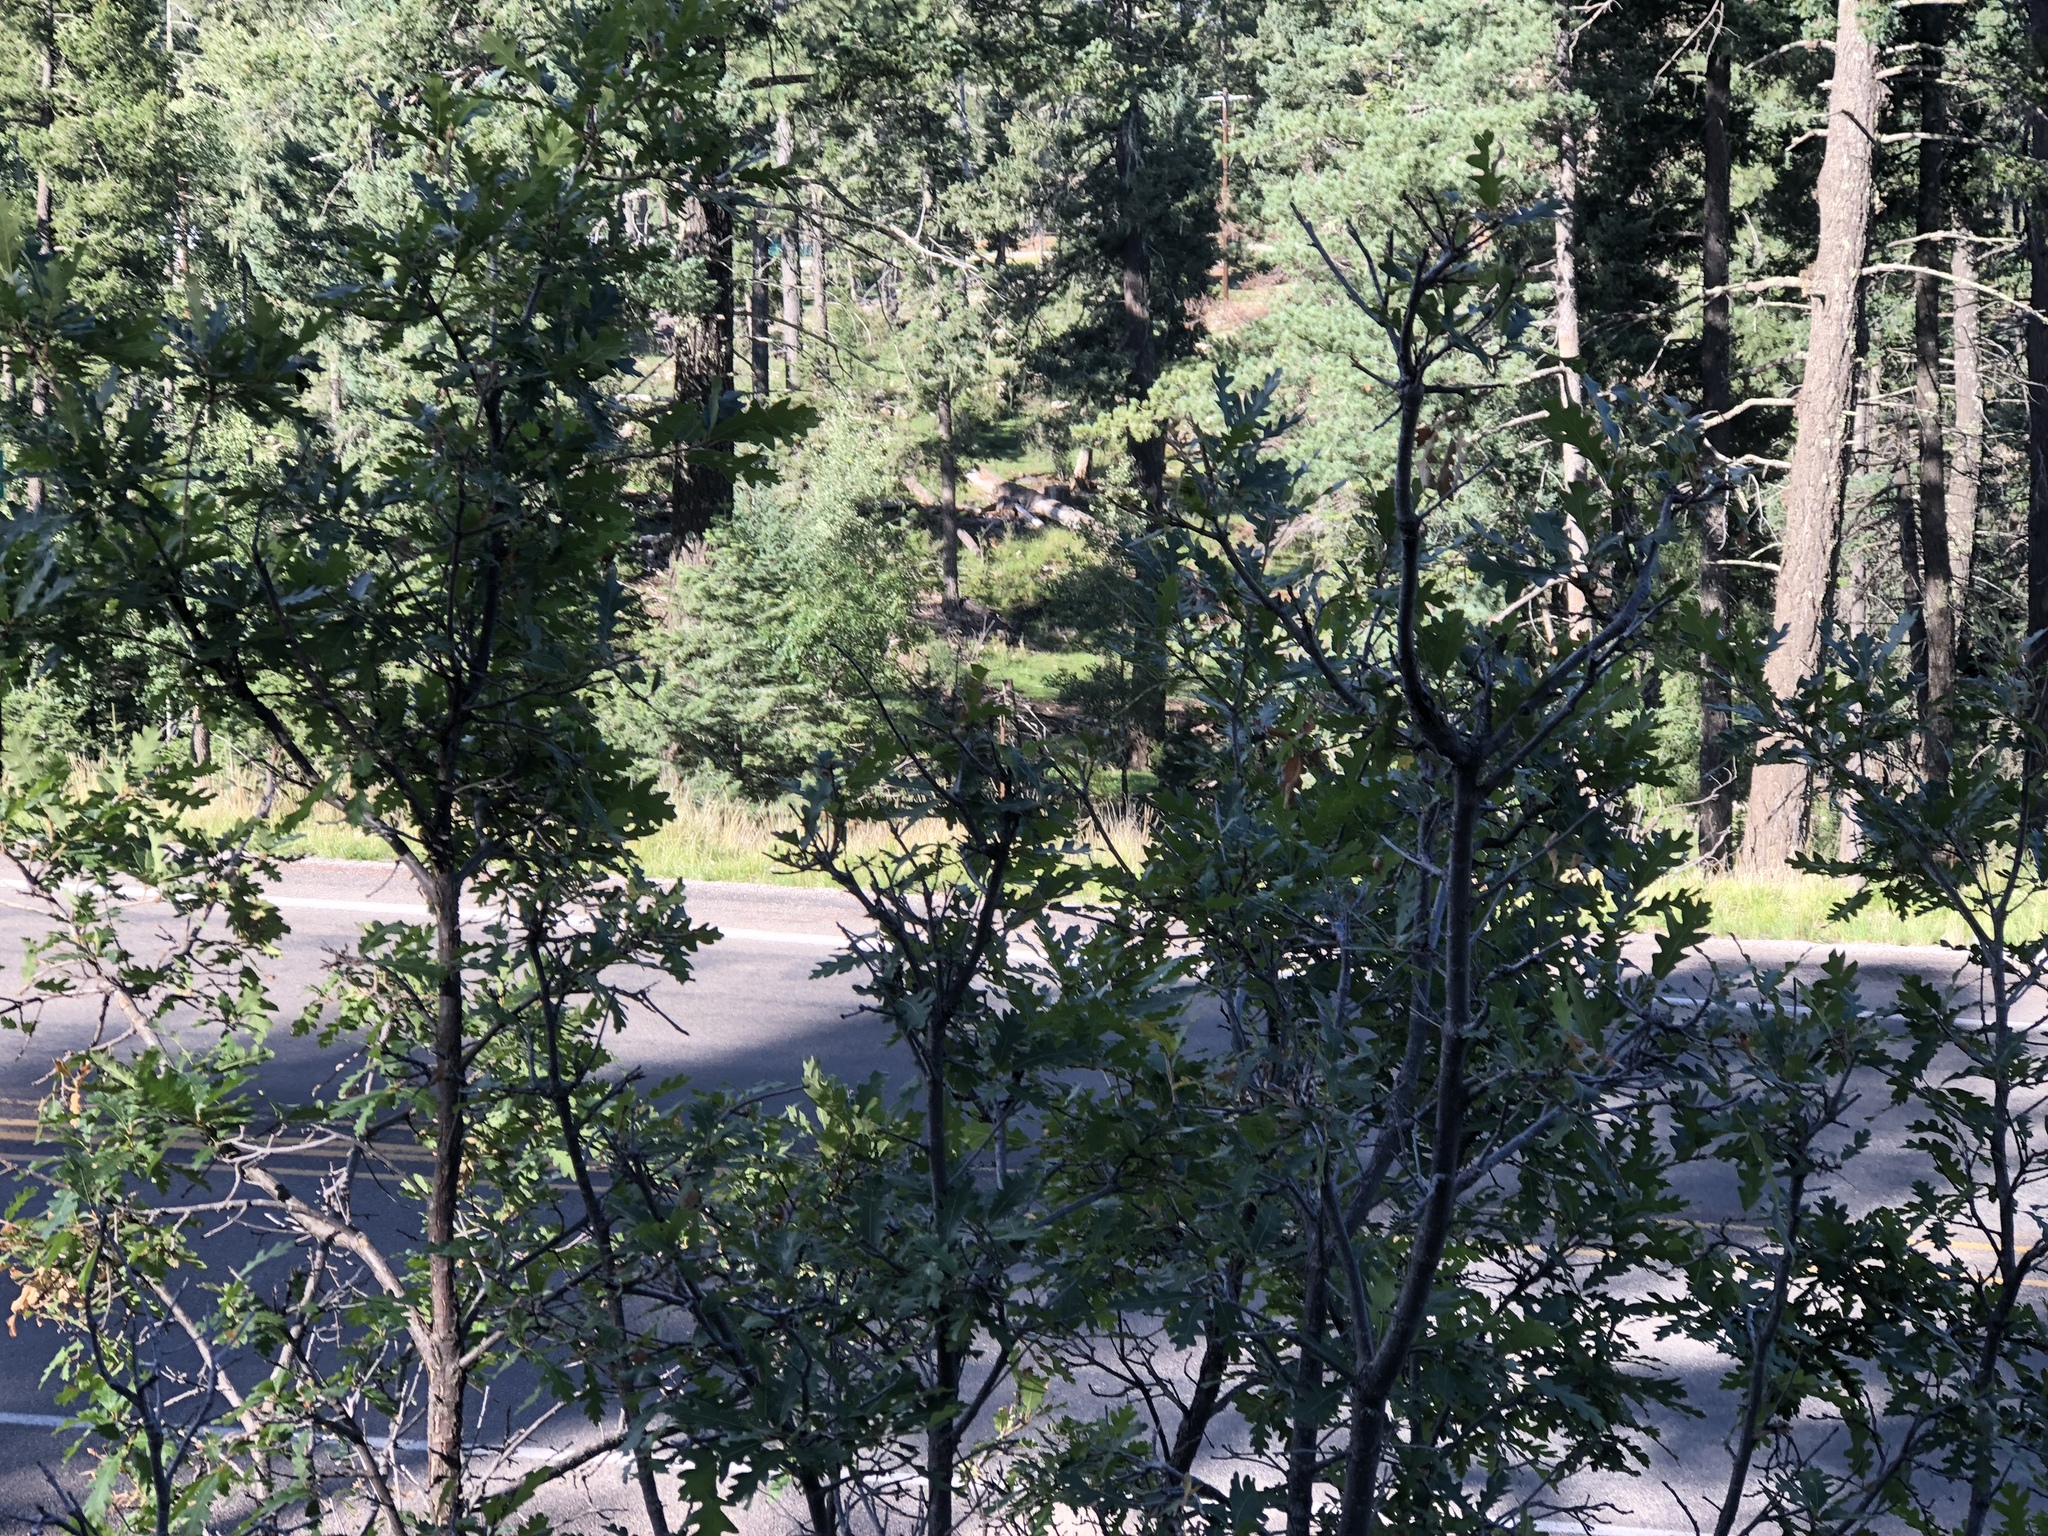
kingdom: Plantae
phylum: Tracheophyta
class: Magnoliopsida
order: Fagales
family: Fagaceae
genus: Quercus
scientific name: Quercus gambelii
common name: Gambel oak
